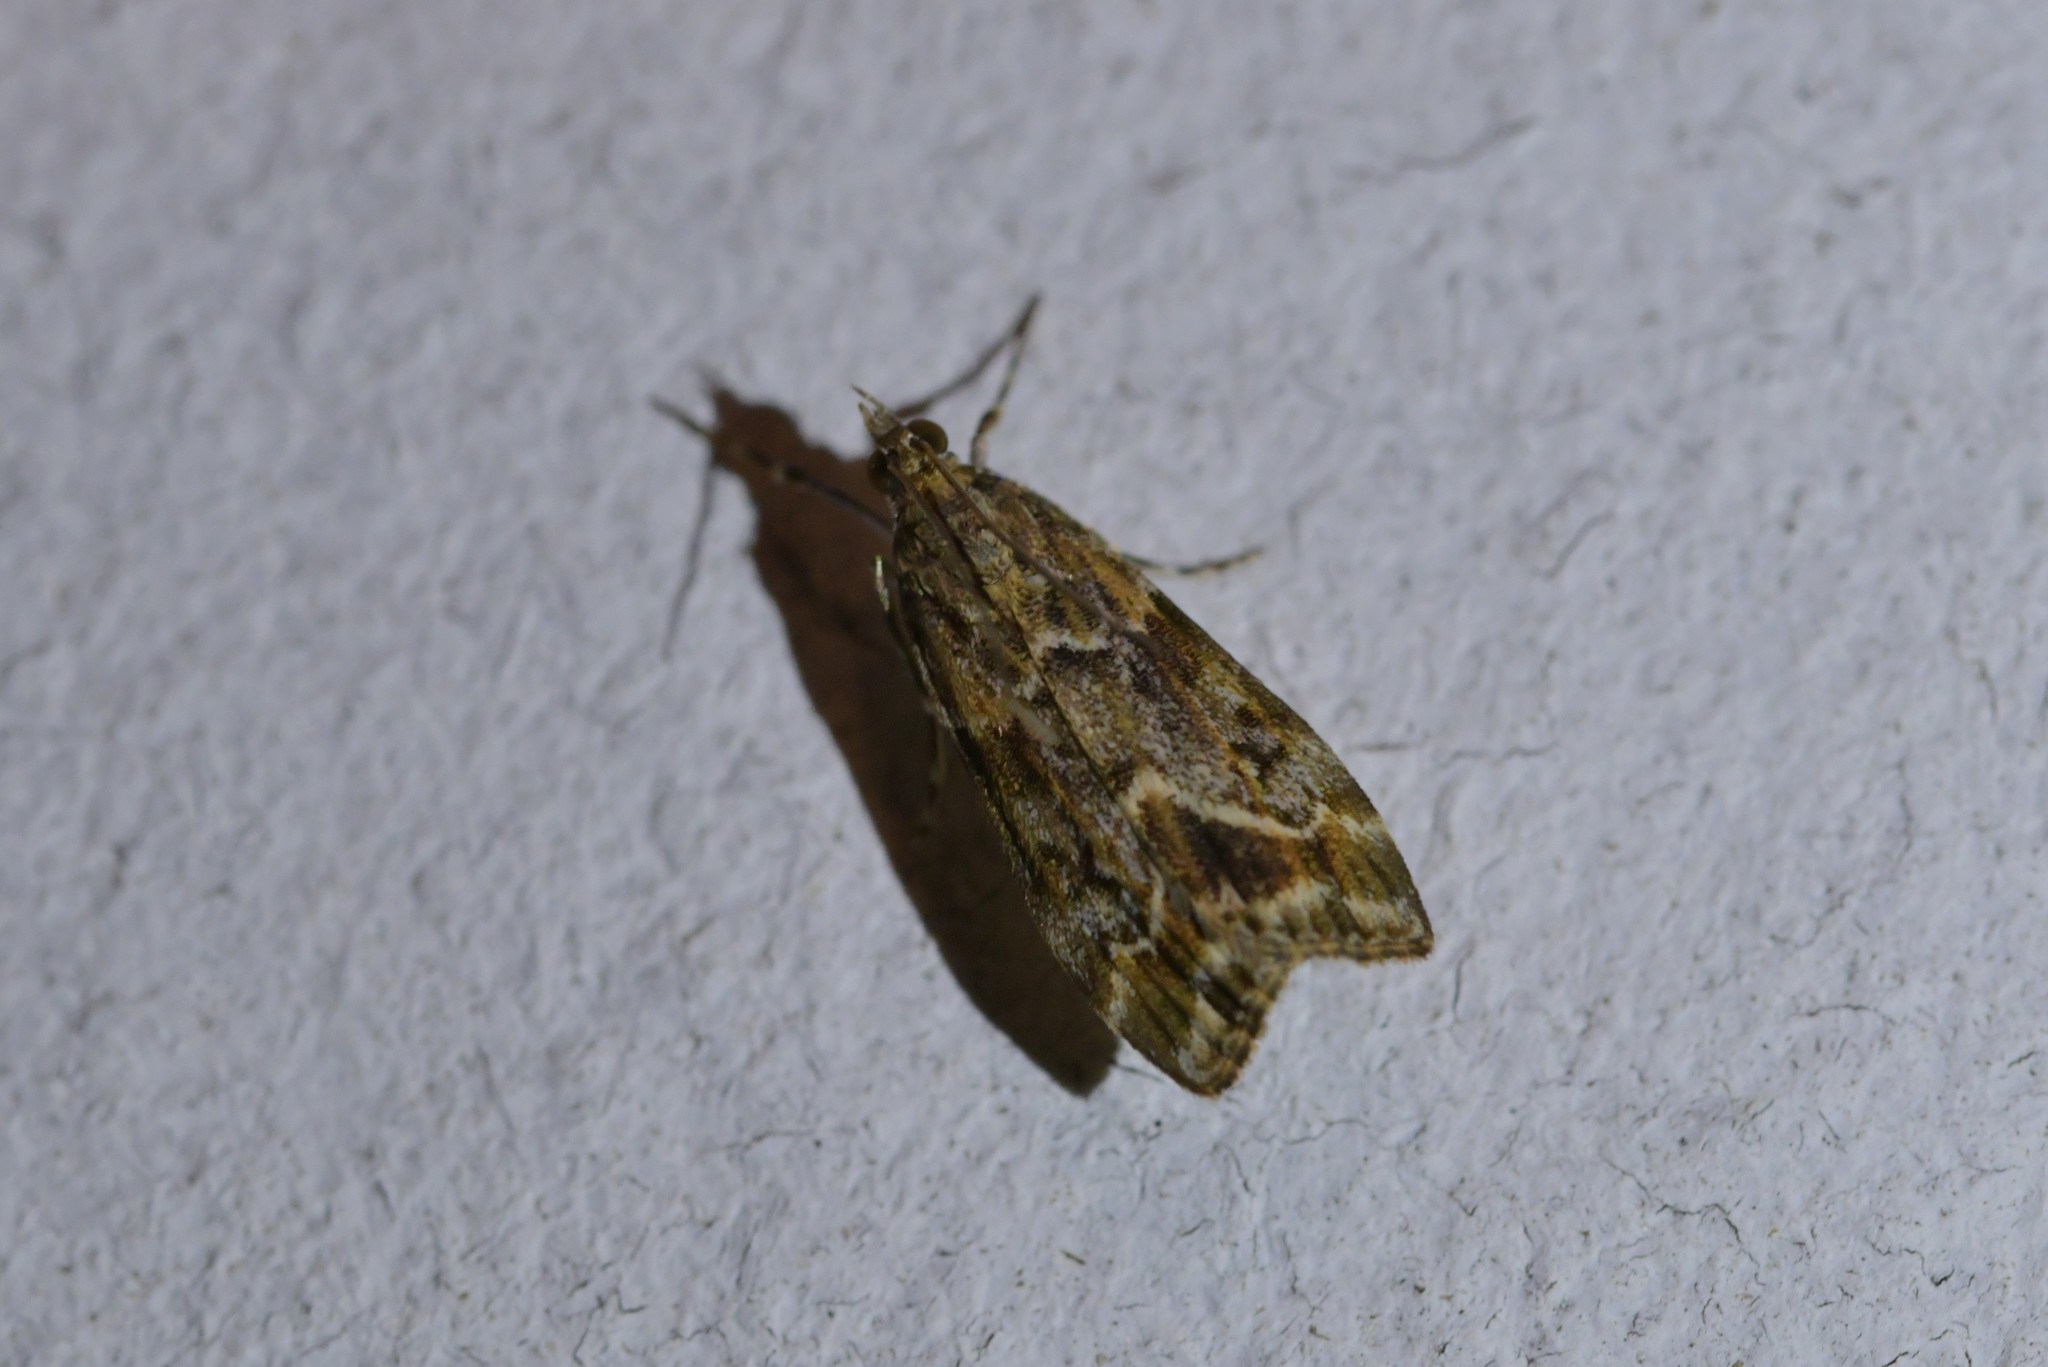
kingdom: Animalia
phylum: Arthropoda
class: Insecta
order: Lepidoptera
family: Crambidae
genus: Eudonia
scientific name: Eudonia legnota
